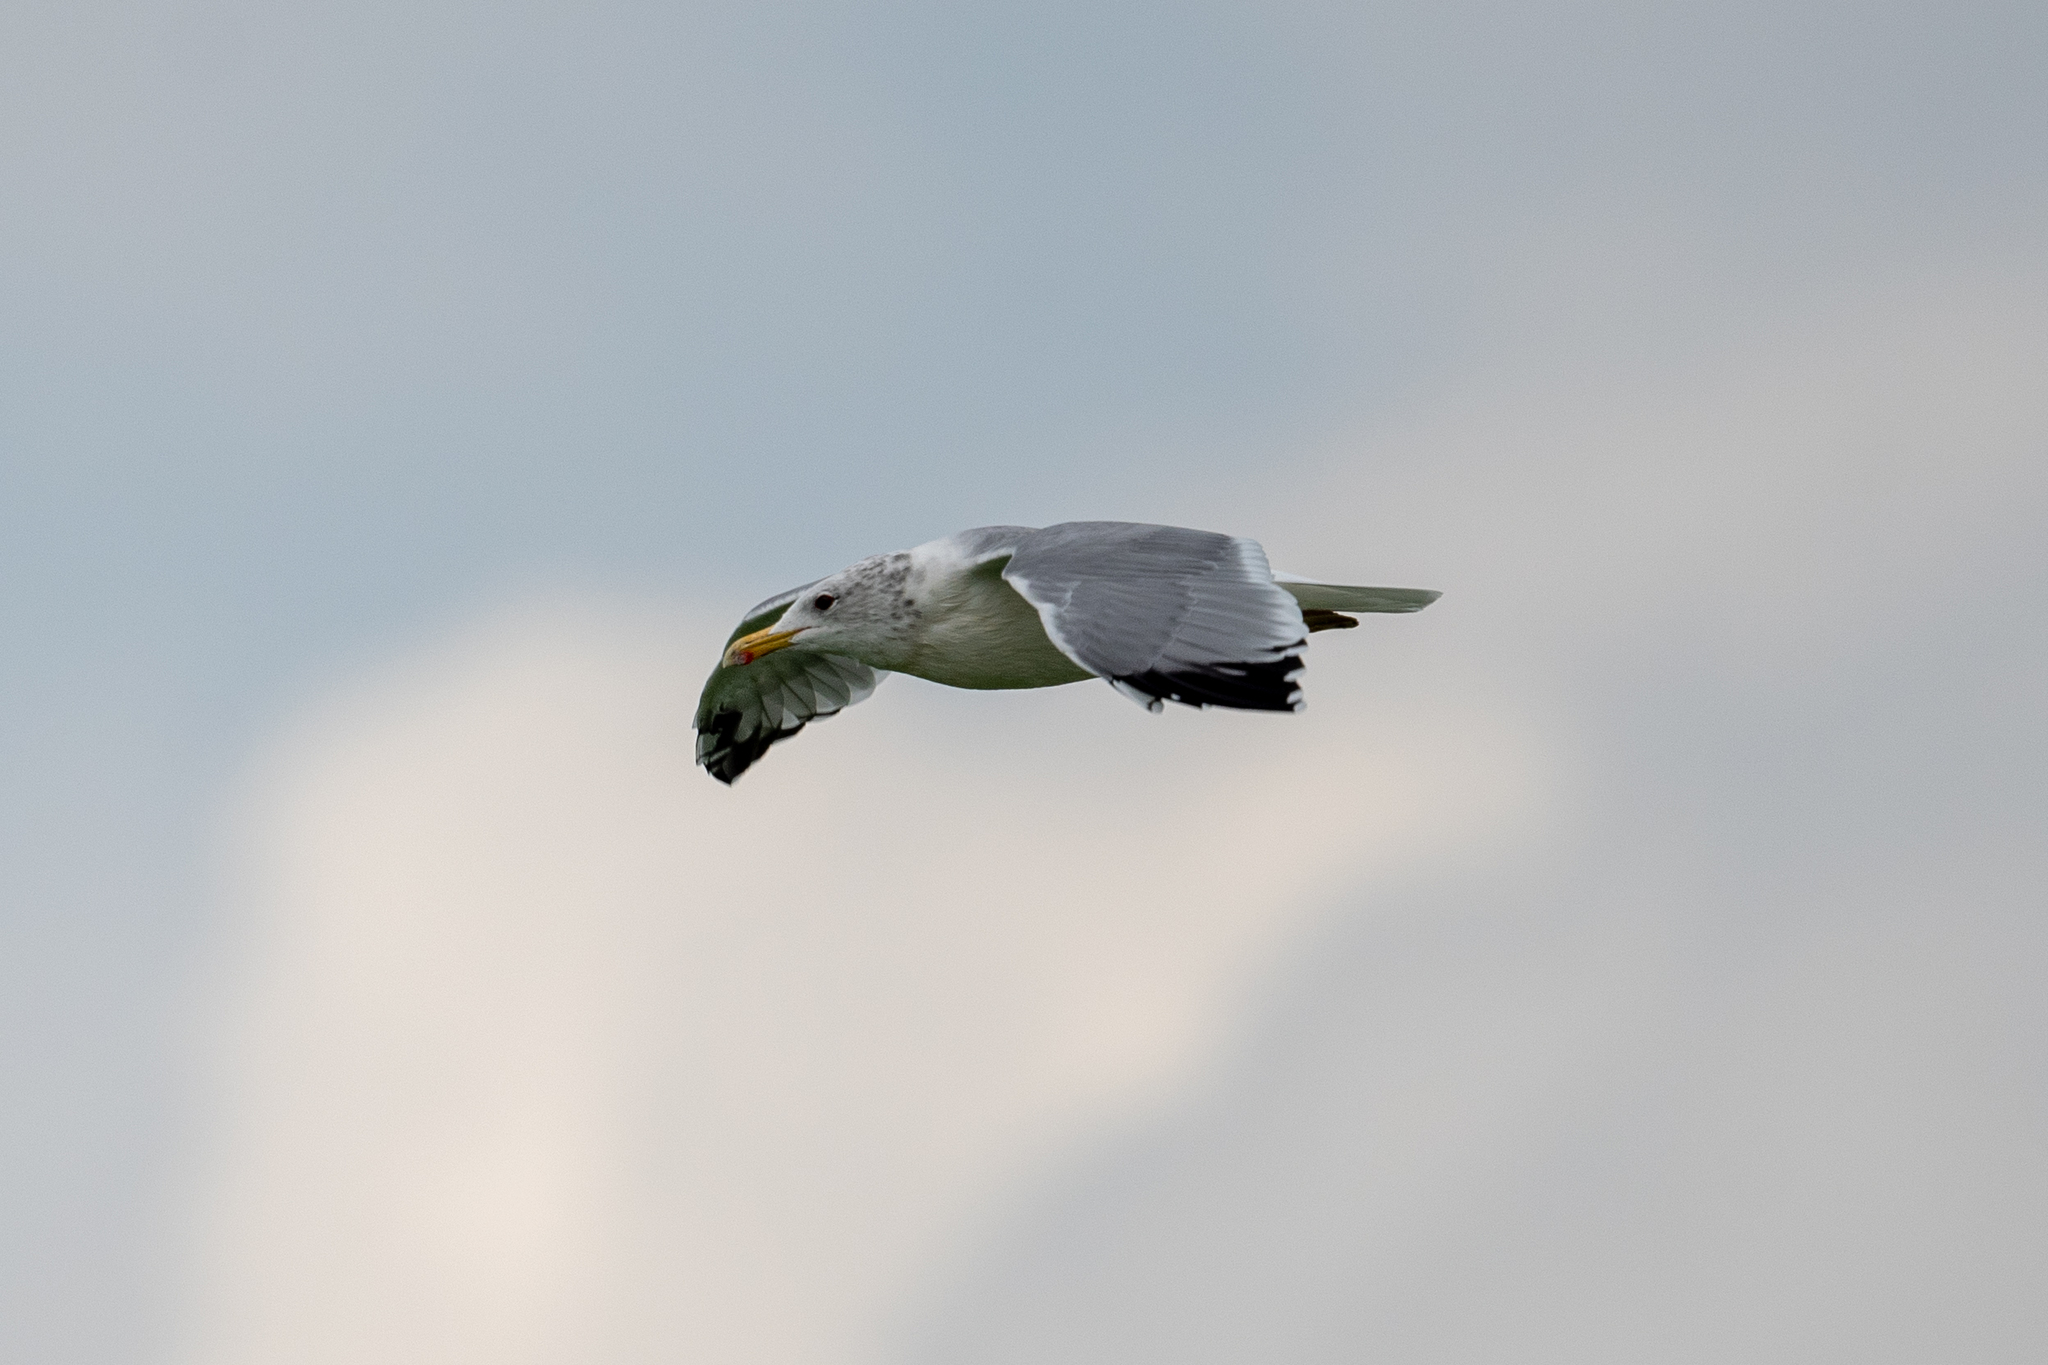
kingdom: Animalia
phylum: Chordata
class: Aves
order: Charadriiformes
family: Laridae
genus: Larus
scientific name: Larus californicus
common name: California gull
